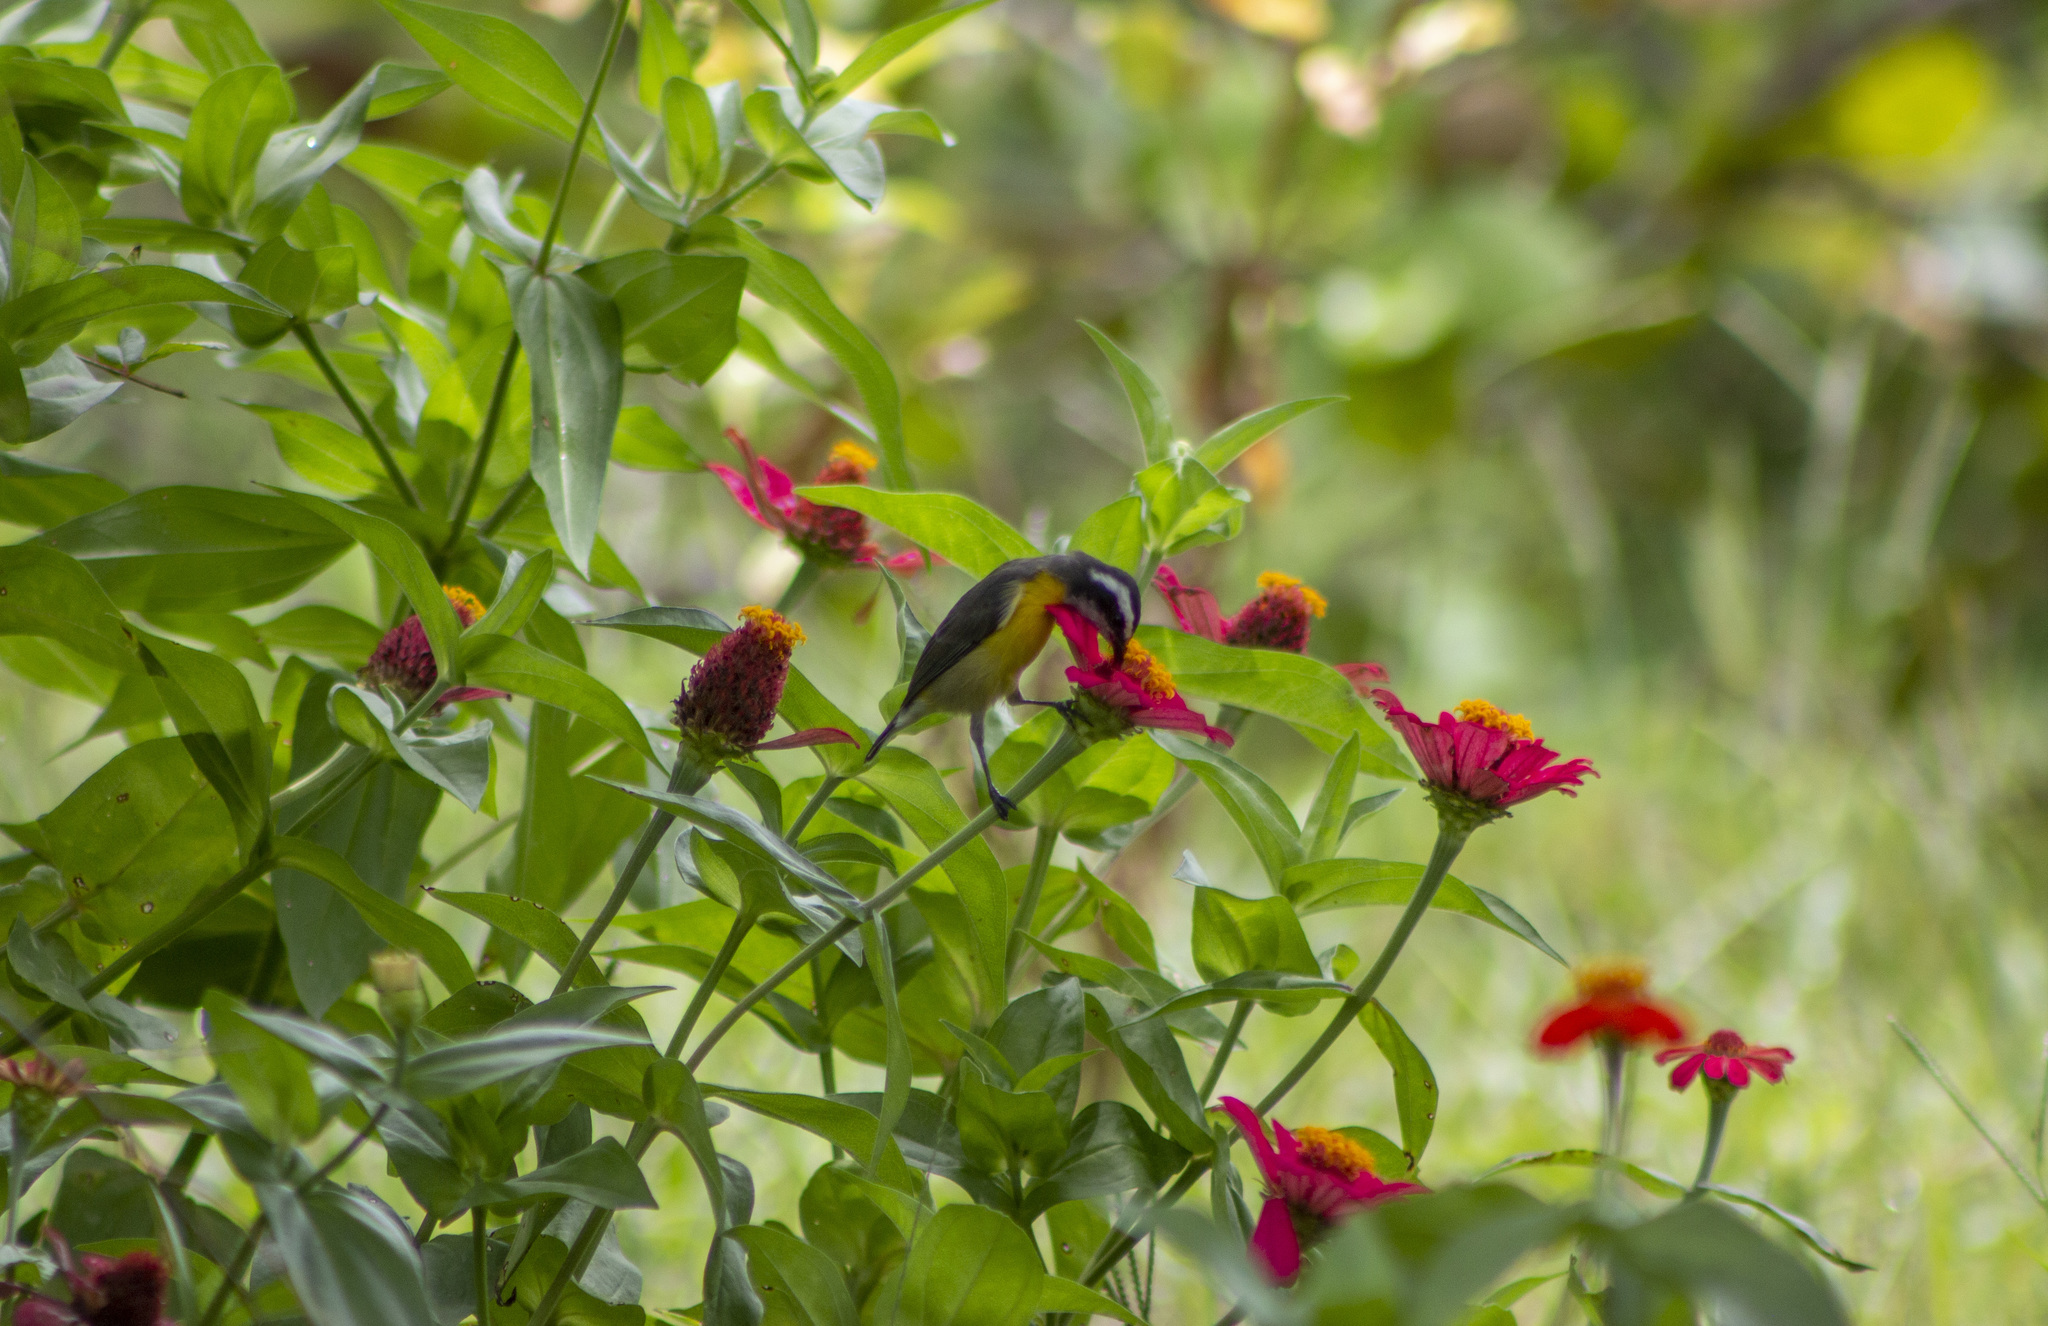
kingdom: Animalia
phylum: Chordata
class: Aves
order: Passeriformes
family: Thraupidae
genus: Coereba
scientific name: Coereba flaveola
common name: Bananaquit
